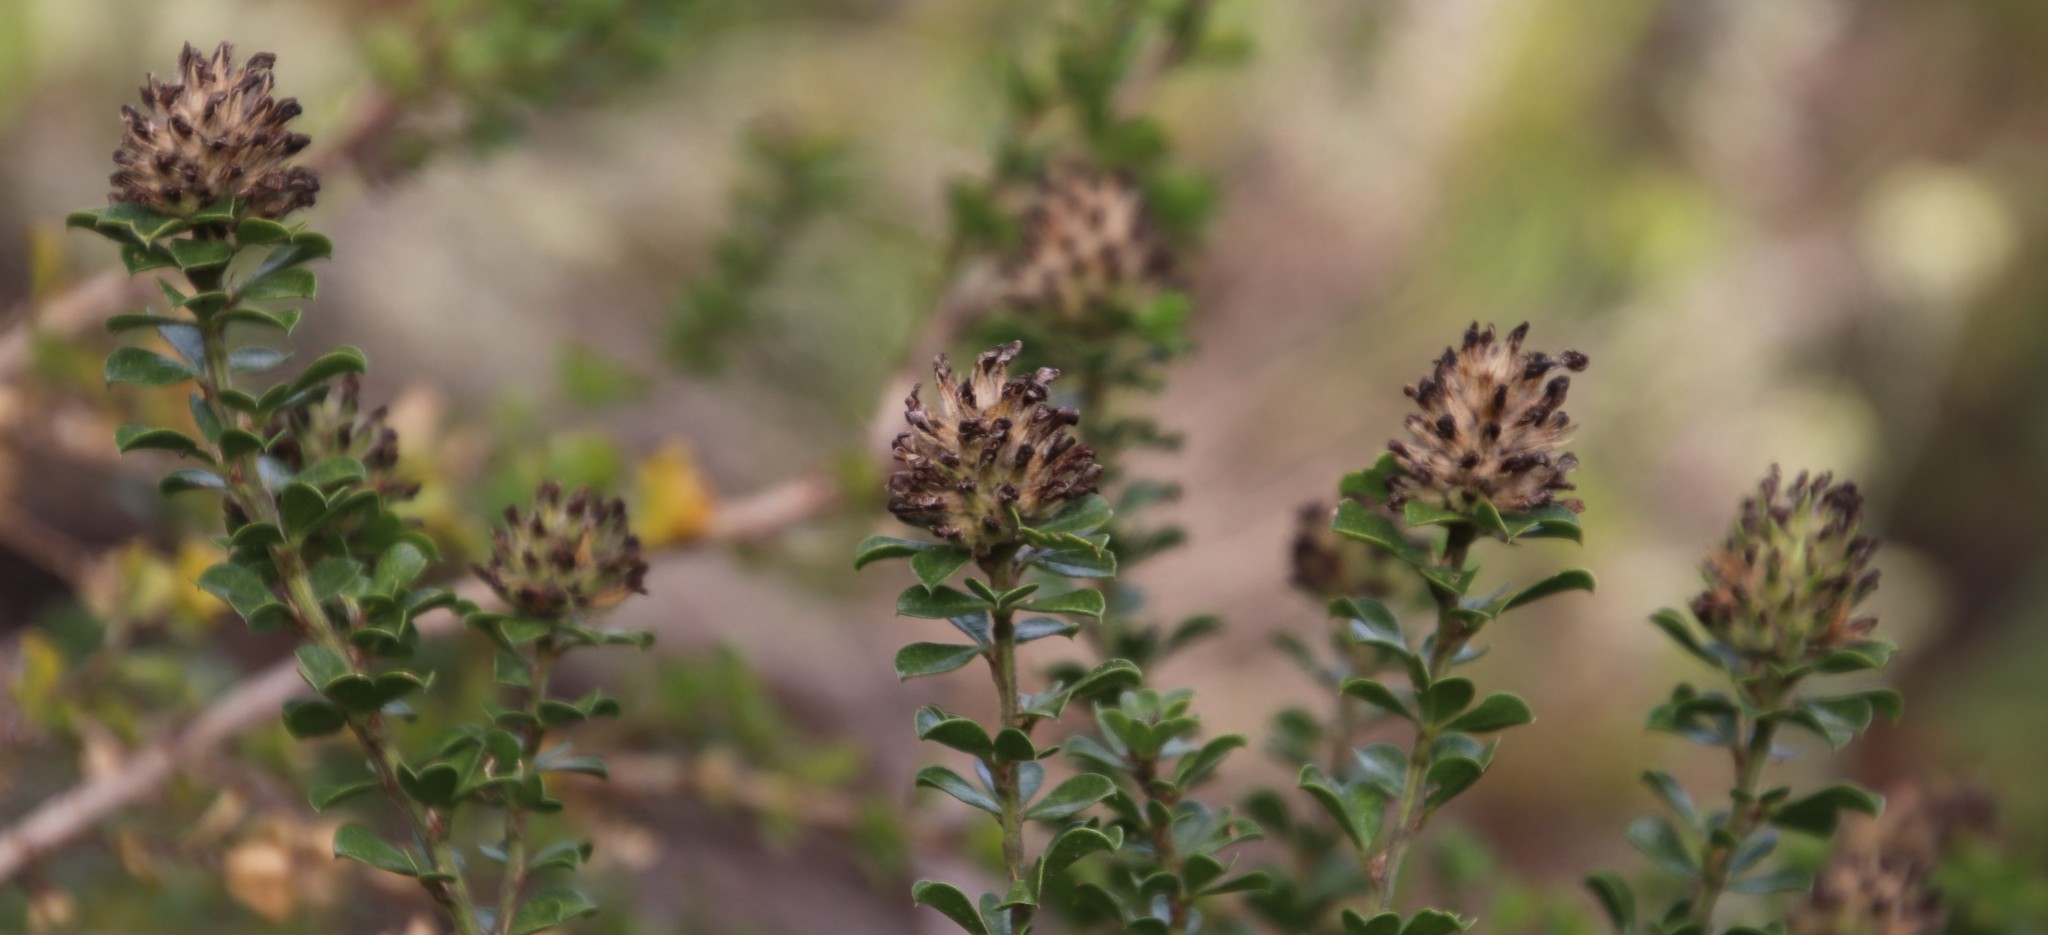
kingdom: Plantae
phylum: Tracheophyta
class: Magnoliopsida
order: Fabales
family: Fabaceae
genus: Psoralea
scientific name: Psoralea bracteolata
